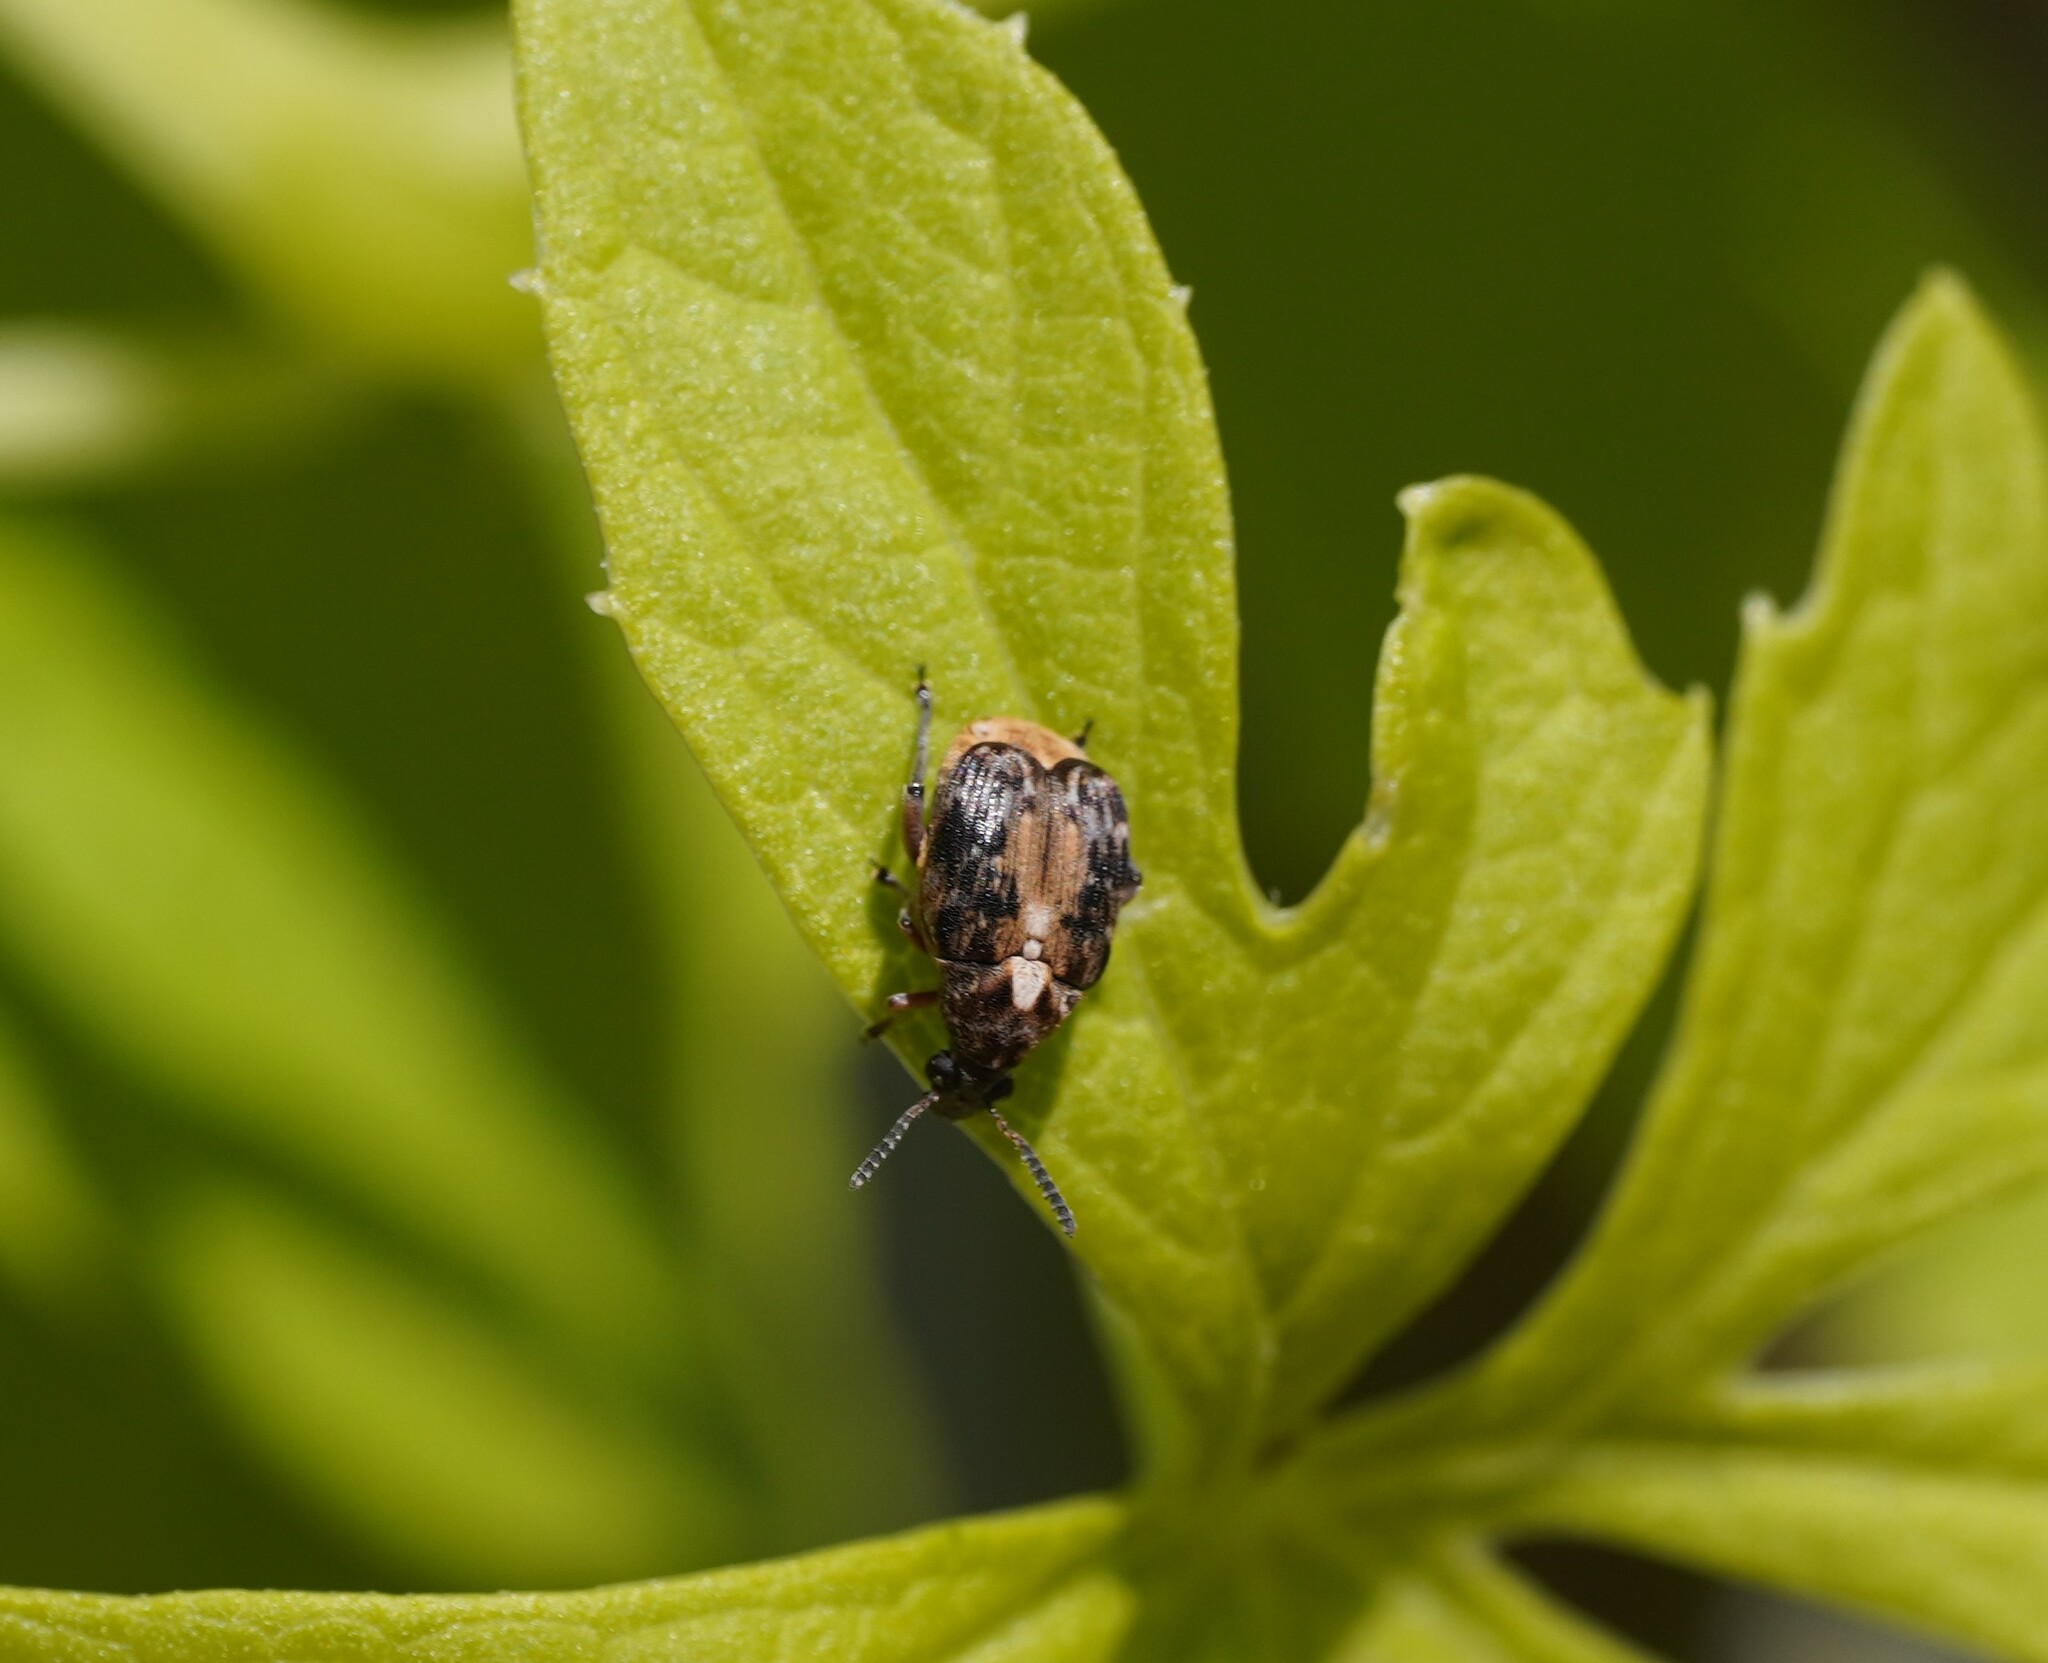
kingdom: Animalia
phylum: Arthropoda
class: Insecta
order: Coleoptera
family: Chrysomelidae
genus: Megabruchidius
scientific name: Megabruchidius dorsalis
